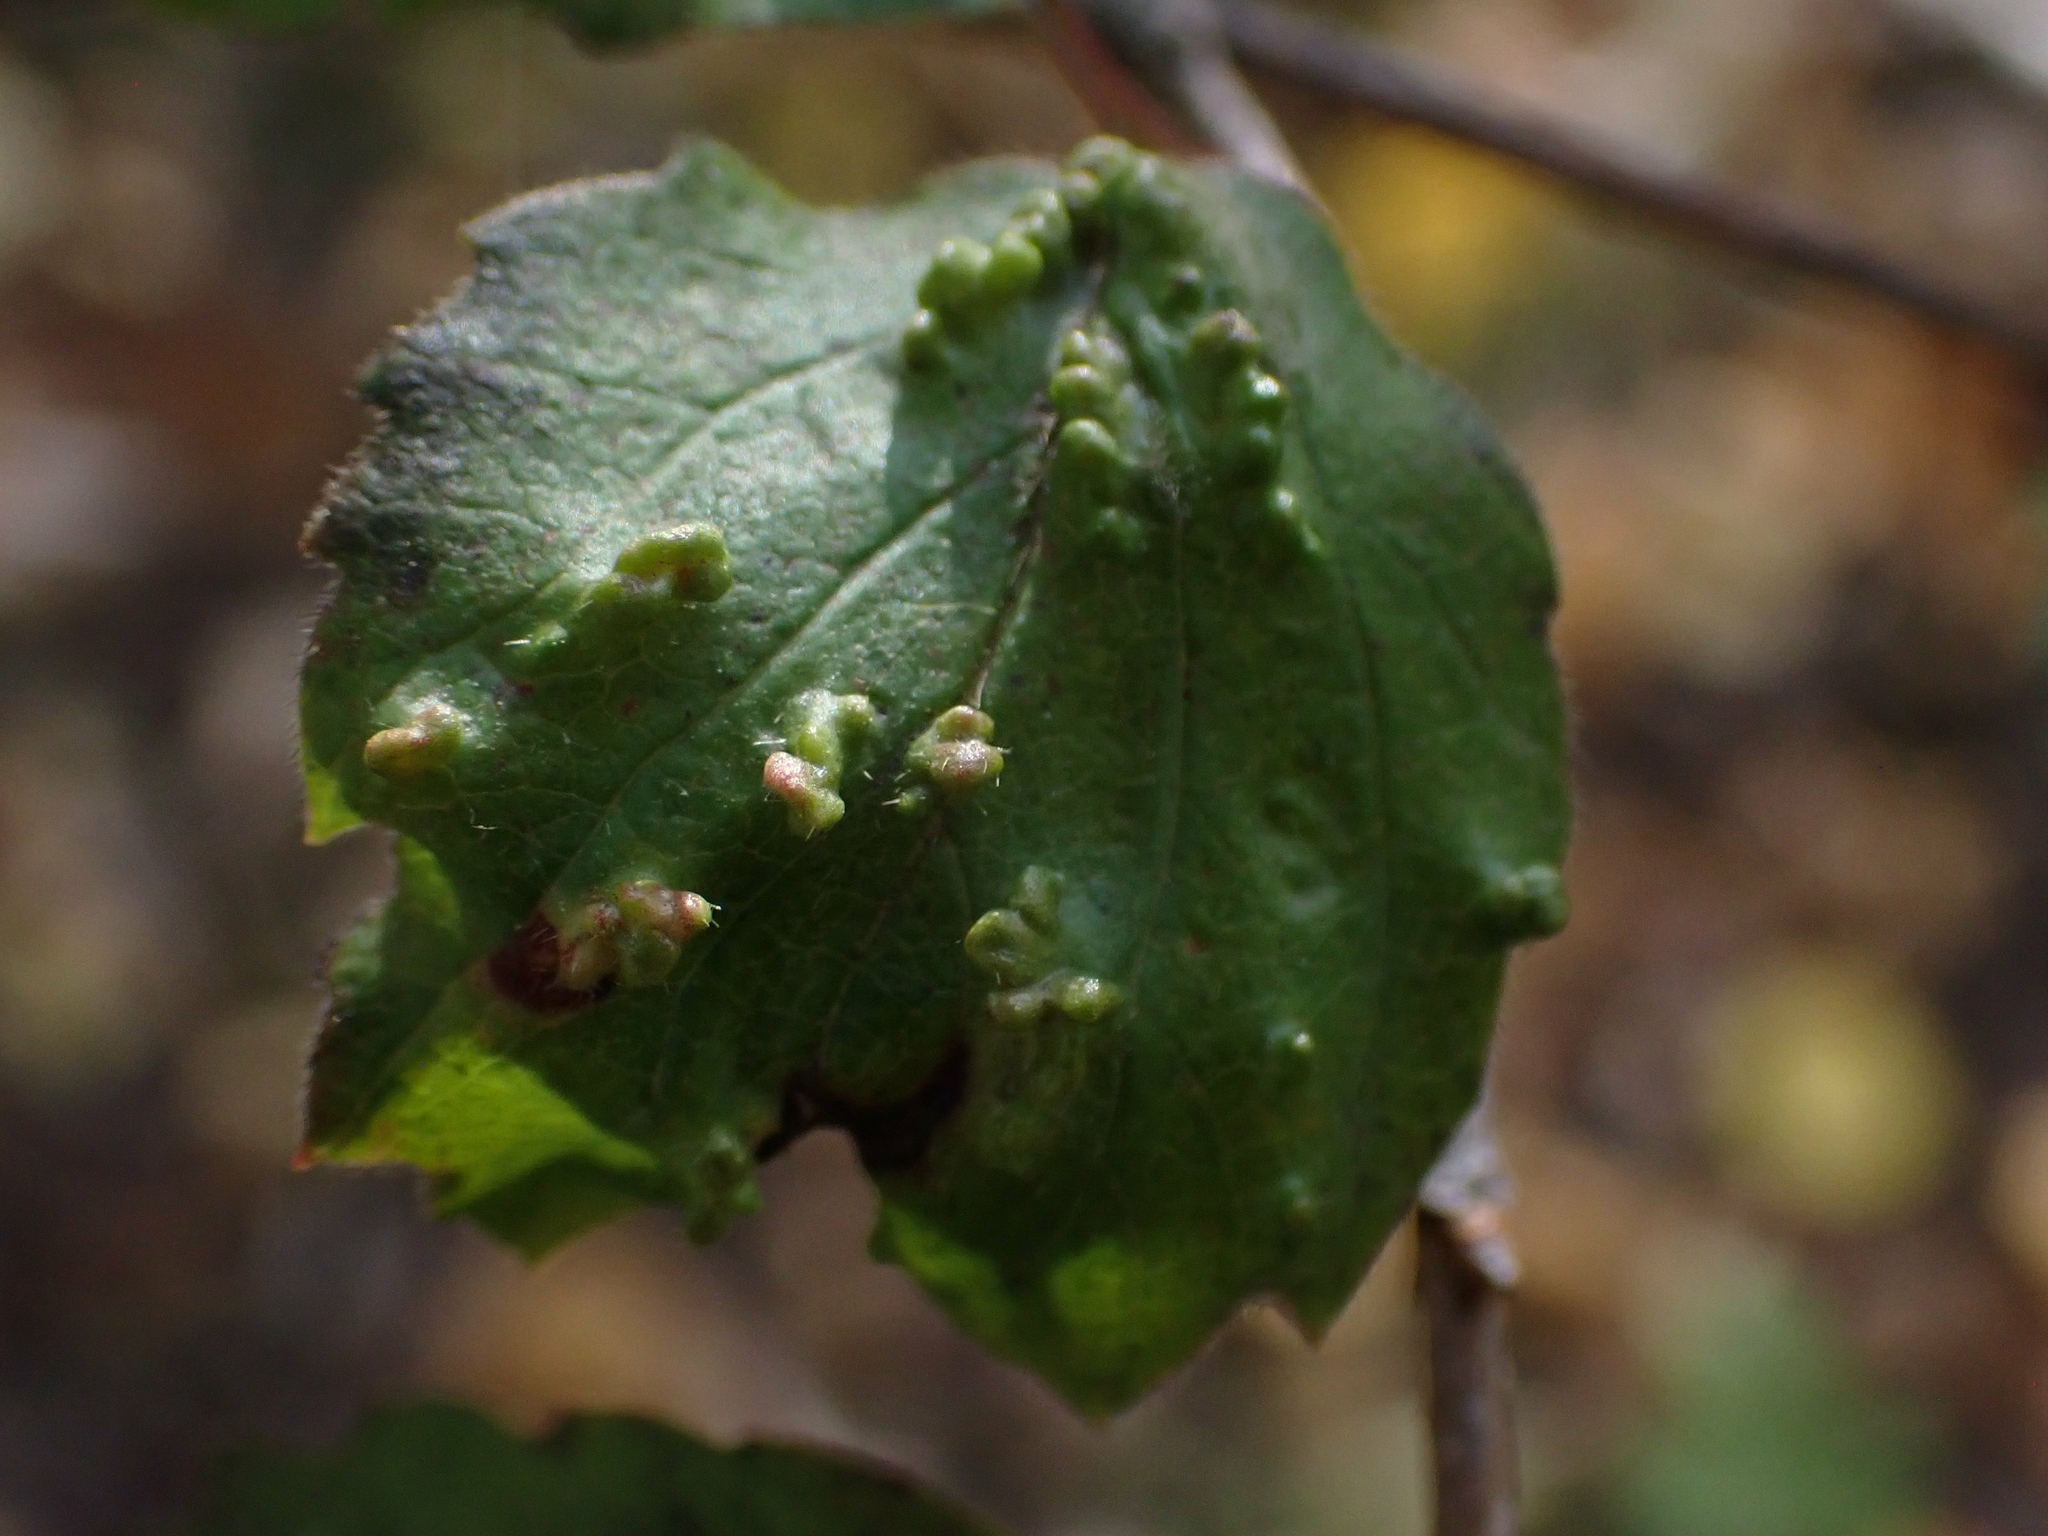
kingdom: Animalia
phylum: Arthropoda
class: Arachnida
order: Trombidiformes
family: Eriophyidae
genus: Eriophyes
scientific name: Eriophyes
